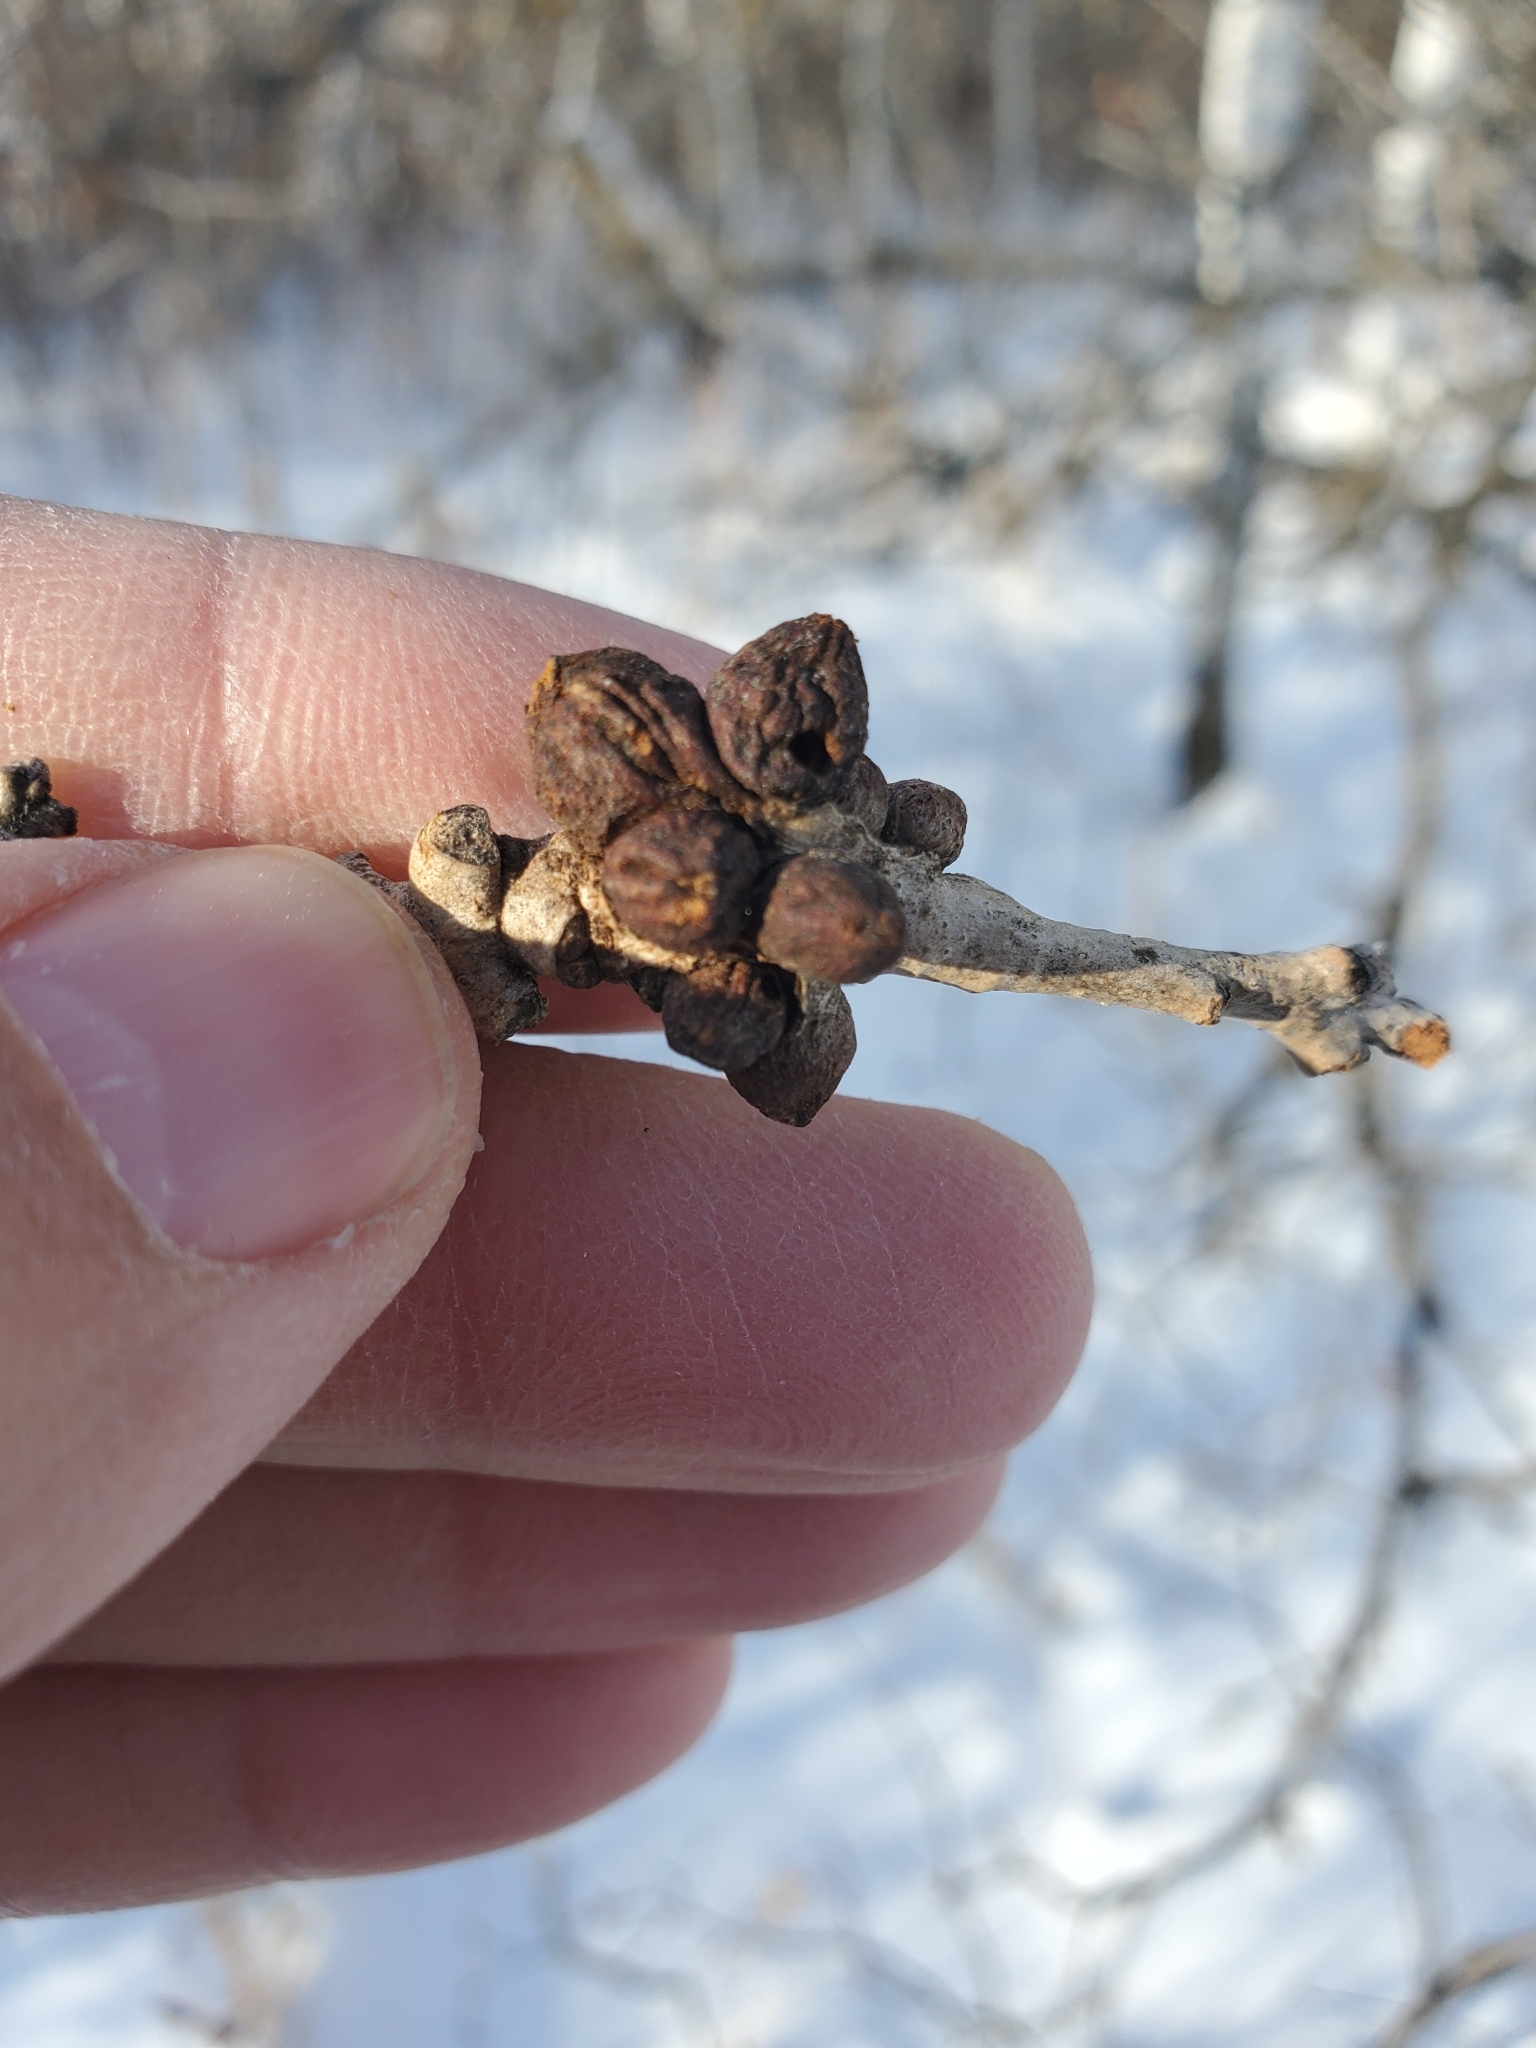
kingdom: Animalia
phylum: Arthropoda
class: Insecta
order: Hymenoptera
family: Cynipidae
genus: Disholcaspis
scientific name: Disholcaspis
